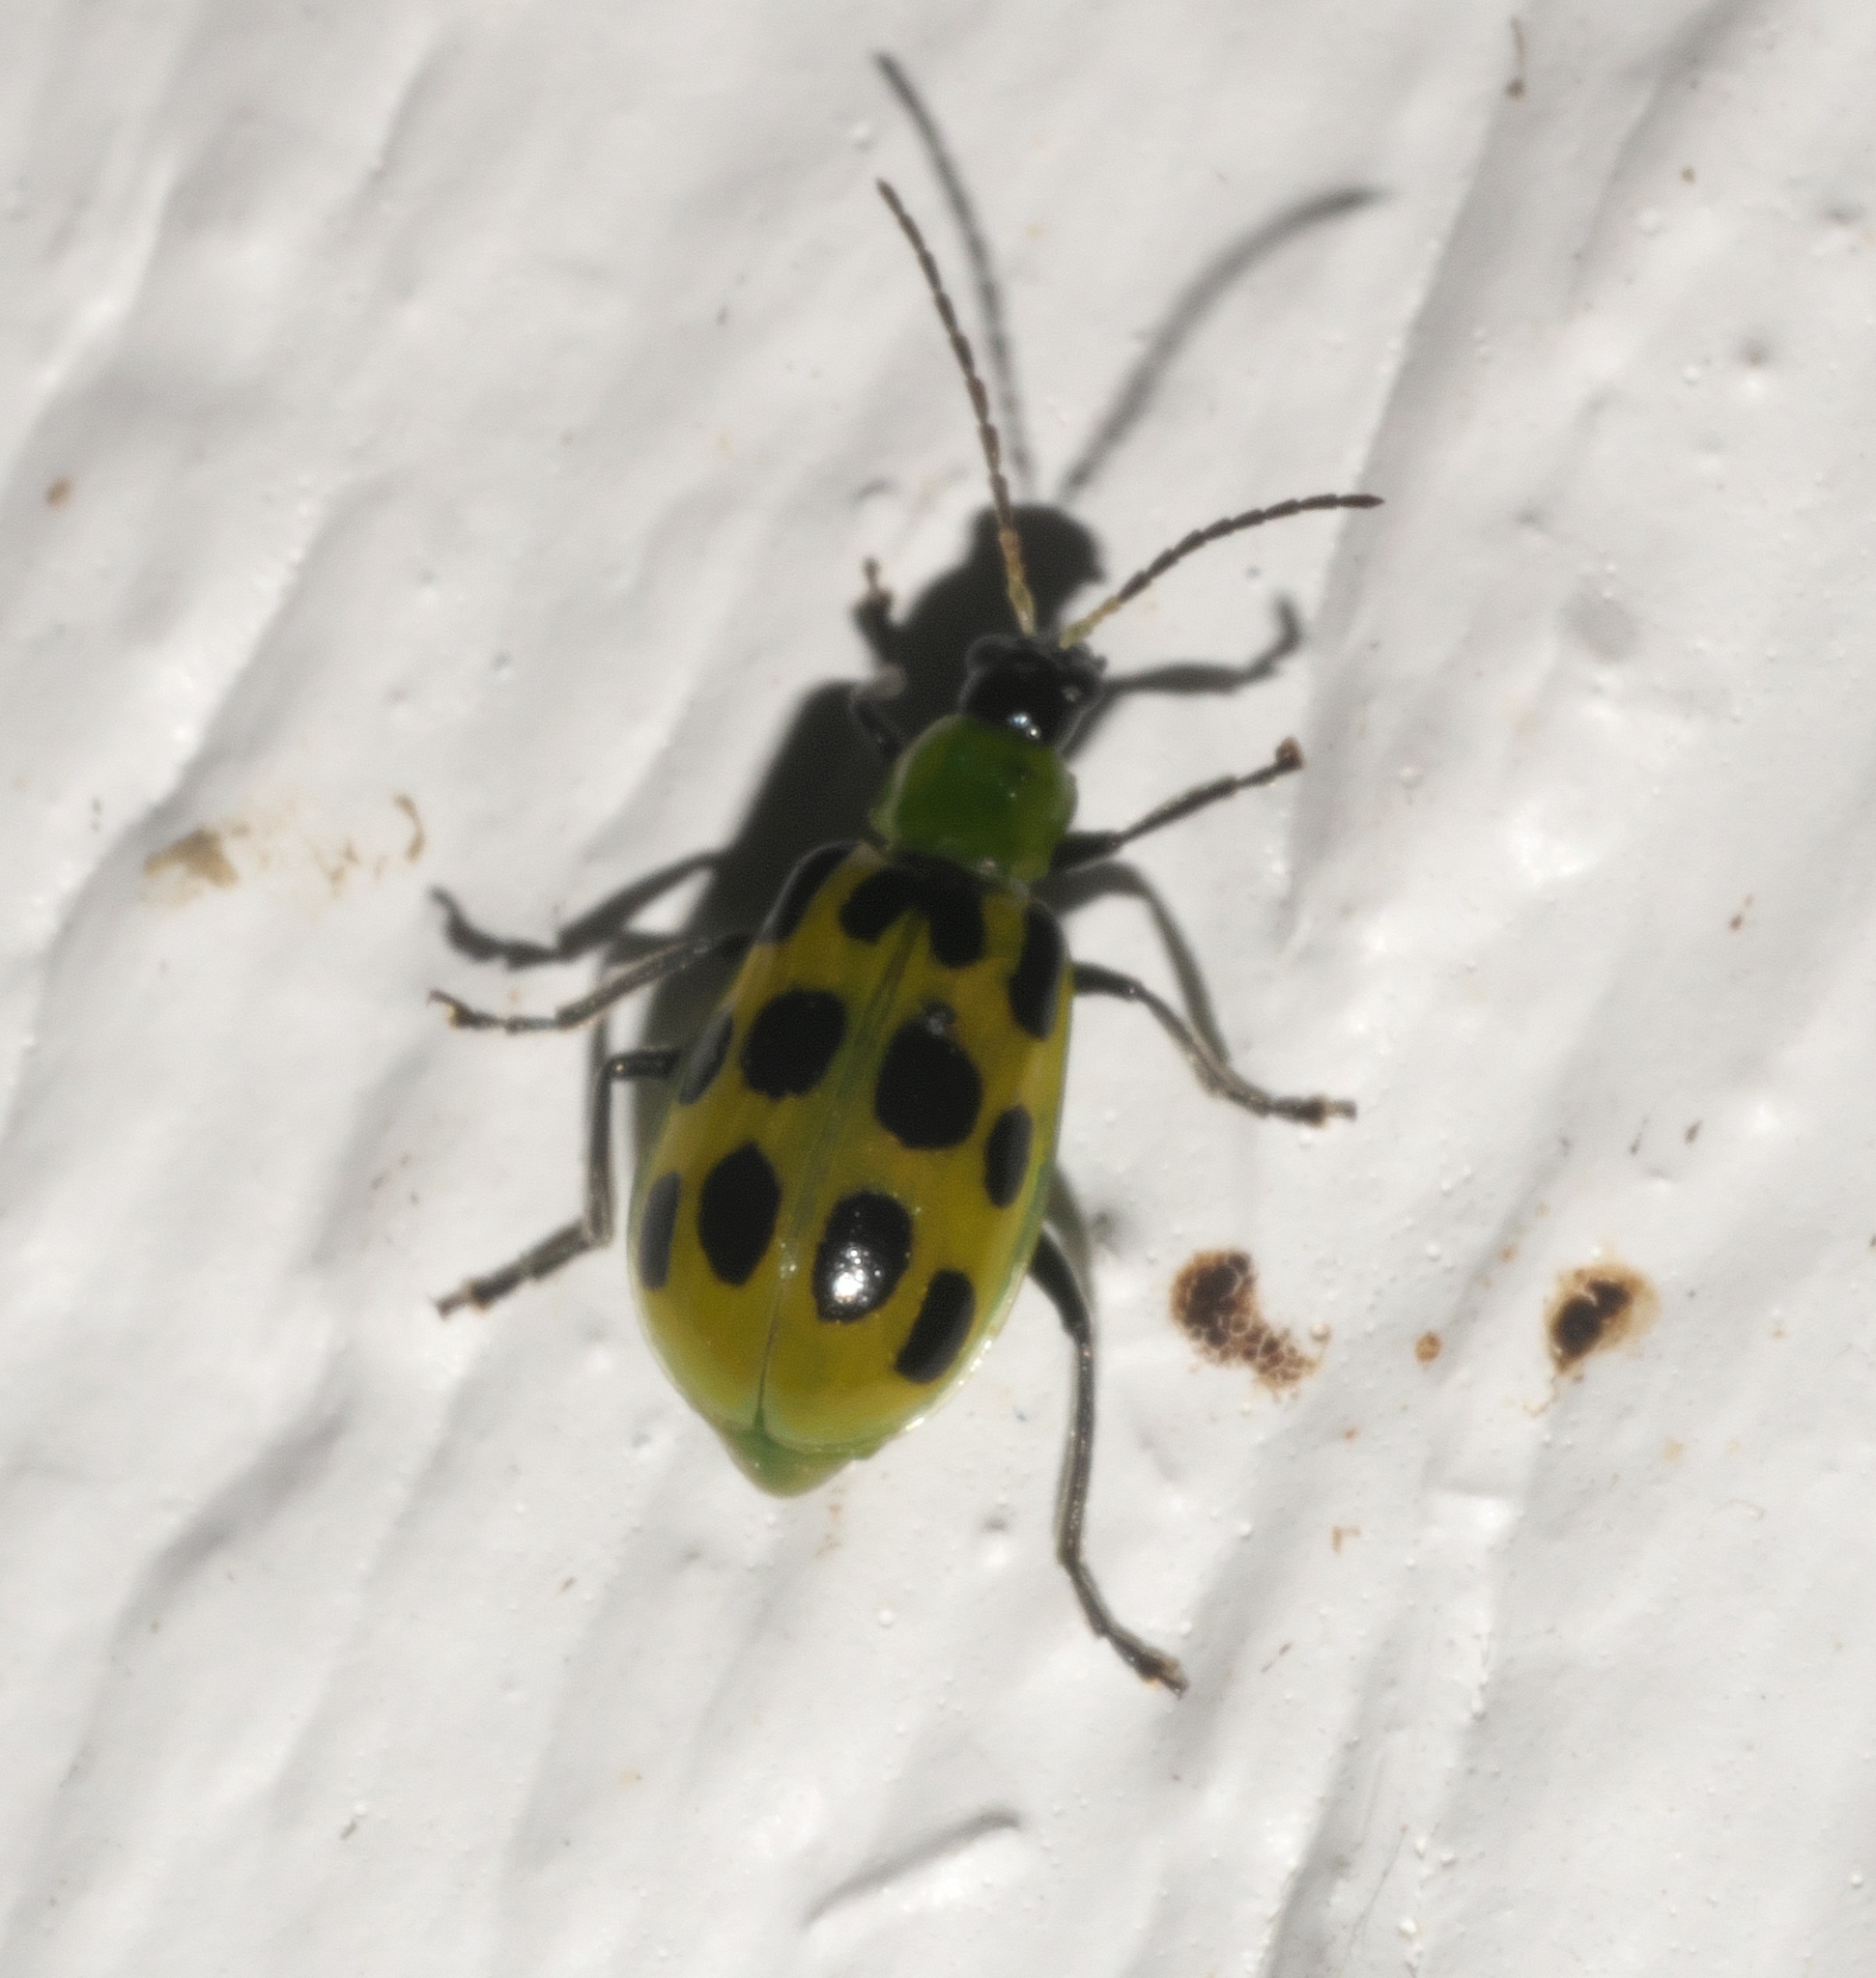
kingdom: Animalia
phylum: Arthropoda
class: Insecta
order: Coleoptera
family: Chrysomelidae
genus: Diabrotica
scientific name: Diabrotica undecimpunctata
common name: Spotted cucumber beetle
